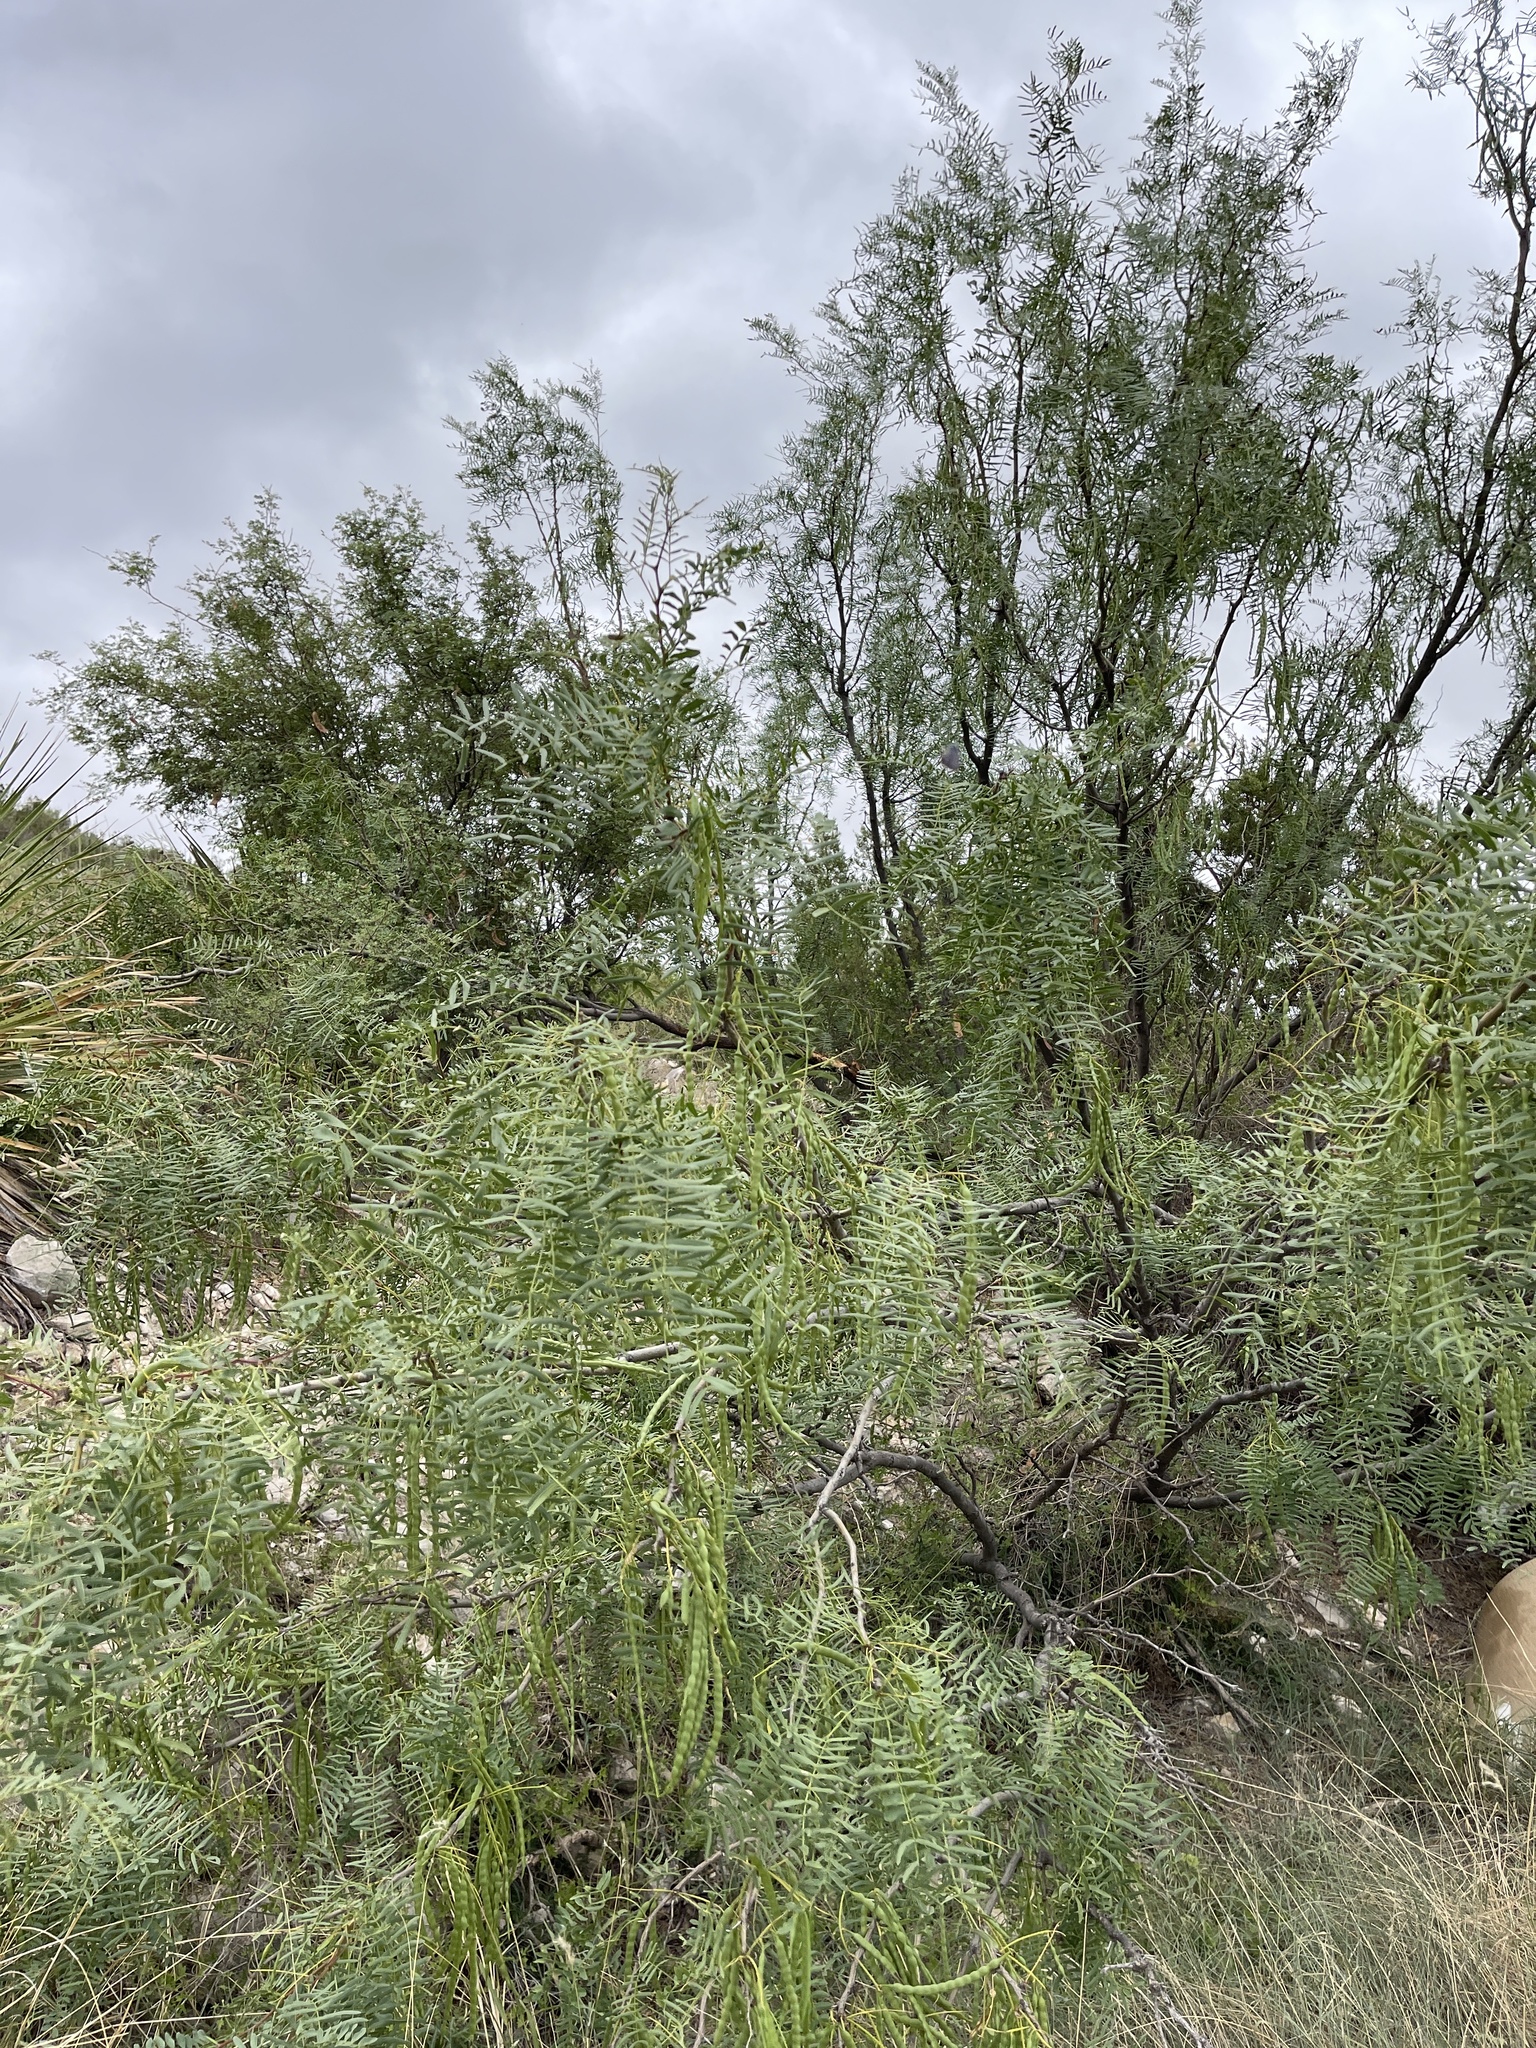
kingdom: Plantae
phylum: Tracheophyta
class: Magnoliopsida
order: Fabales
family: Fabaceae
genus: Prosopis
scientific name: Prosopis glandulosa
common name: Honey mesquite
